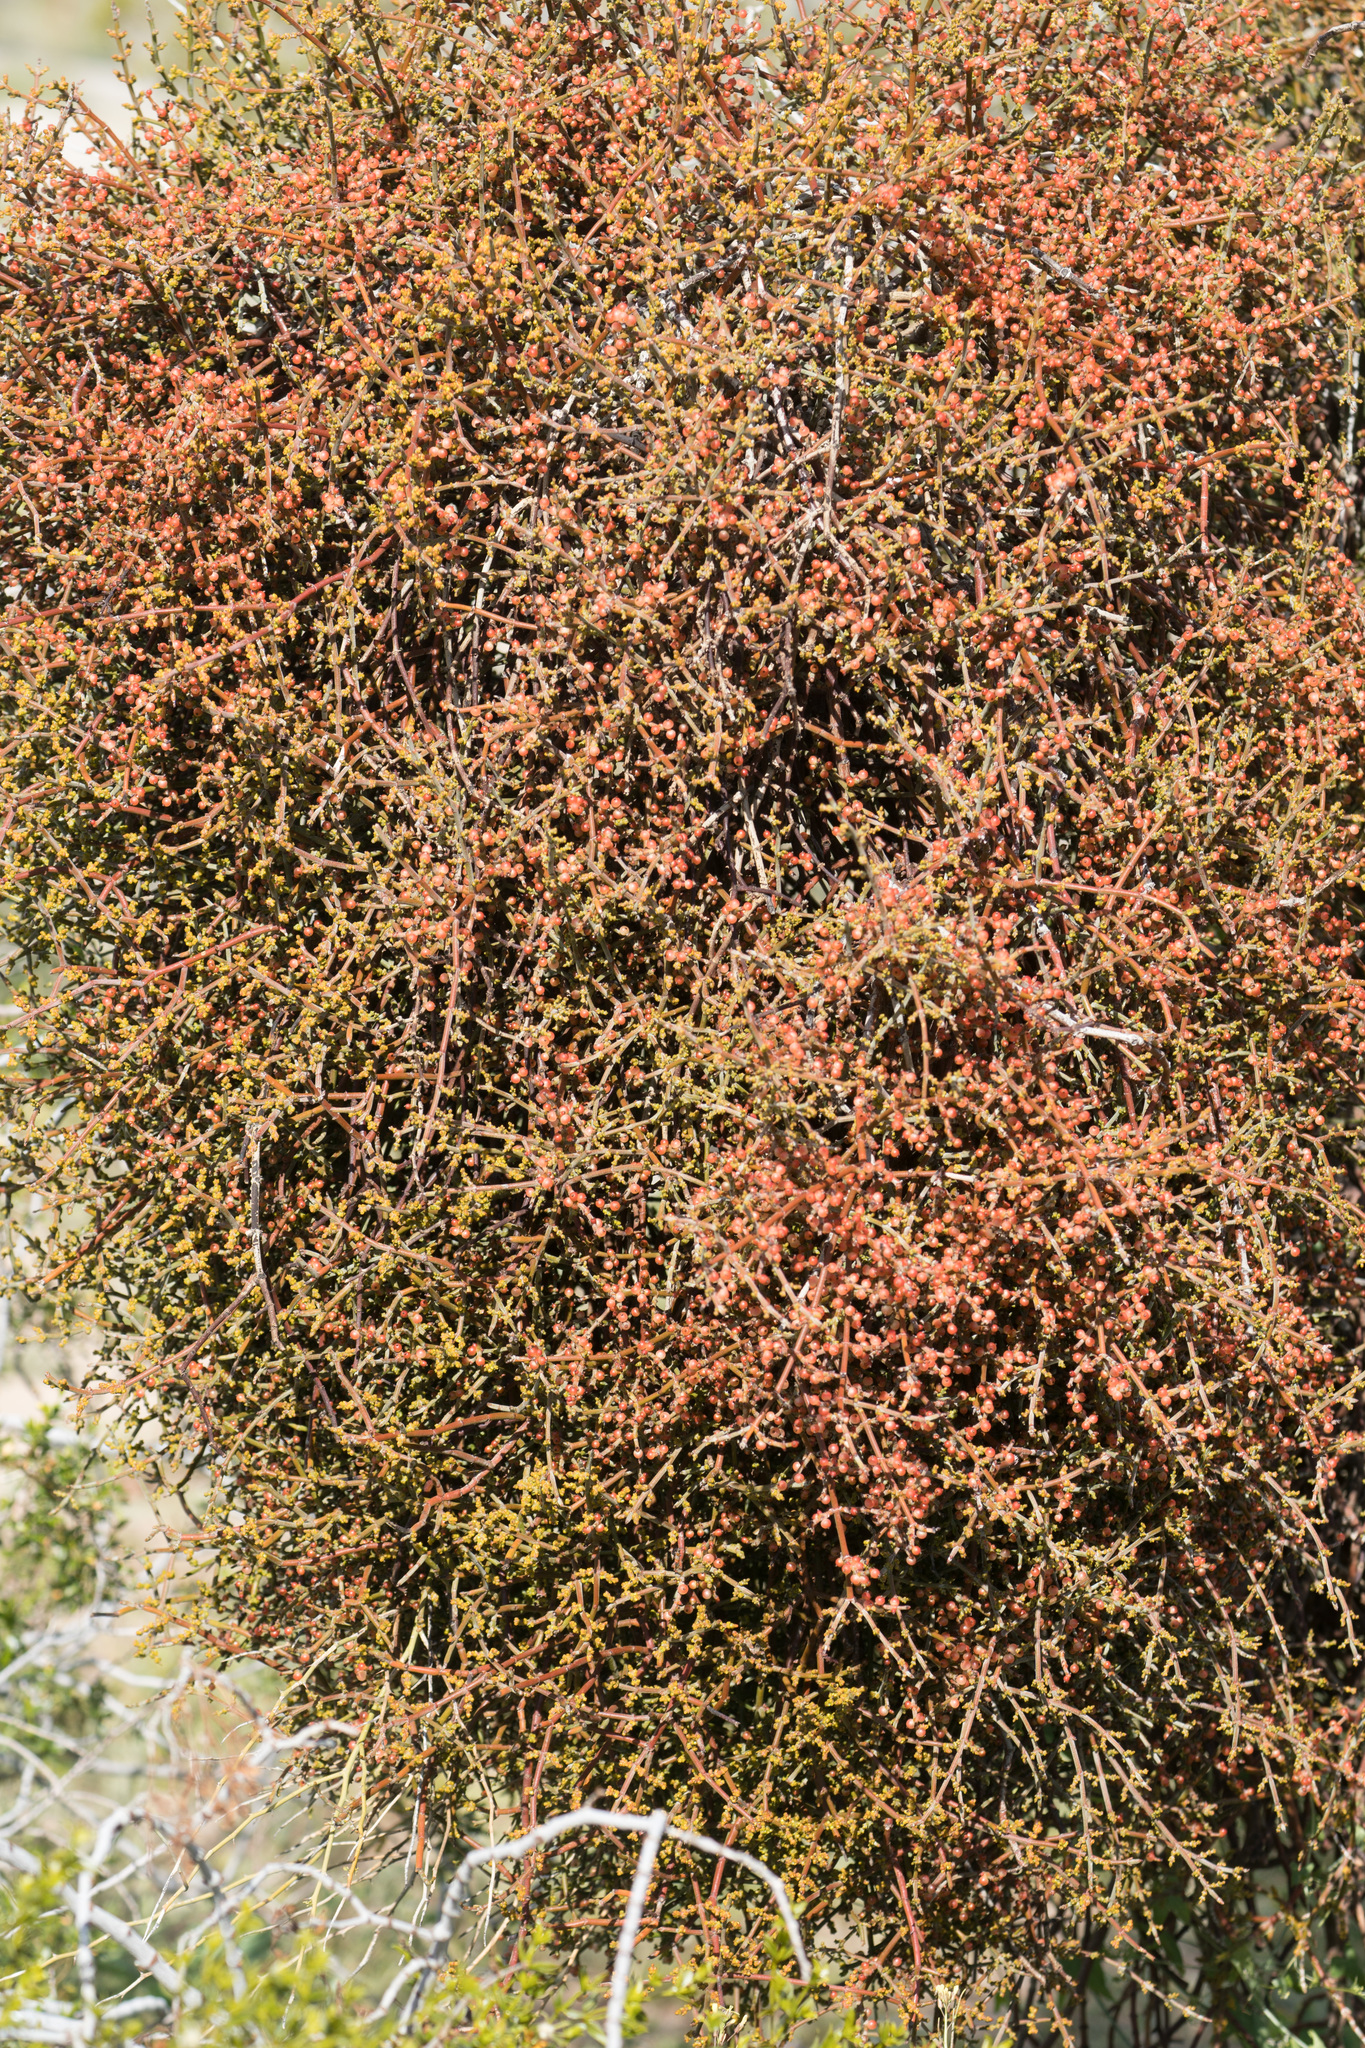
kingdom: Plantae
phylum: Tracheophyta
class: Magnoliopsida
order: Santalales
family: Viscaceae
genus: Phoradendron
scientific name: Phoradendron californicum
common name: Acacia mistletoe
